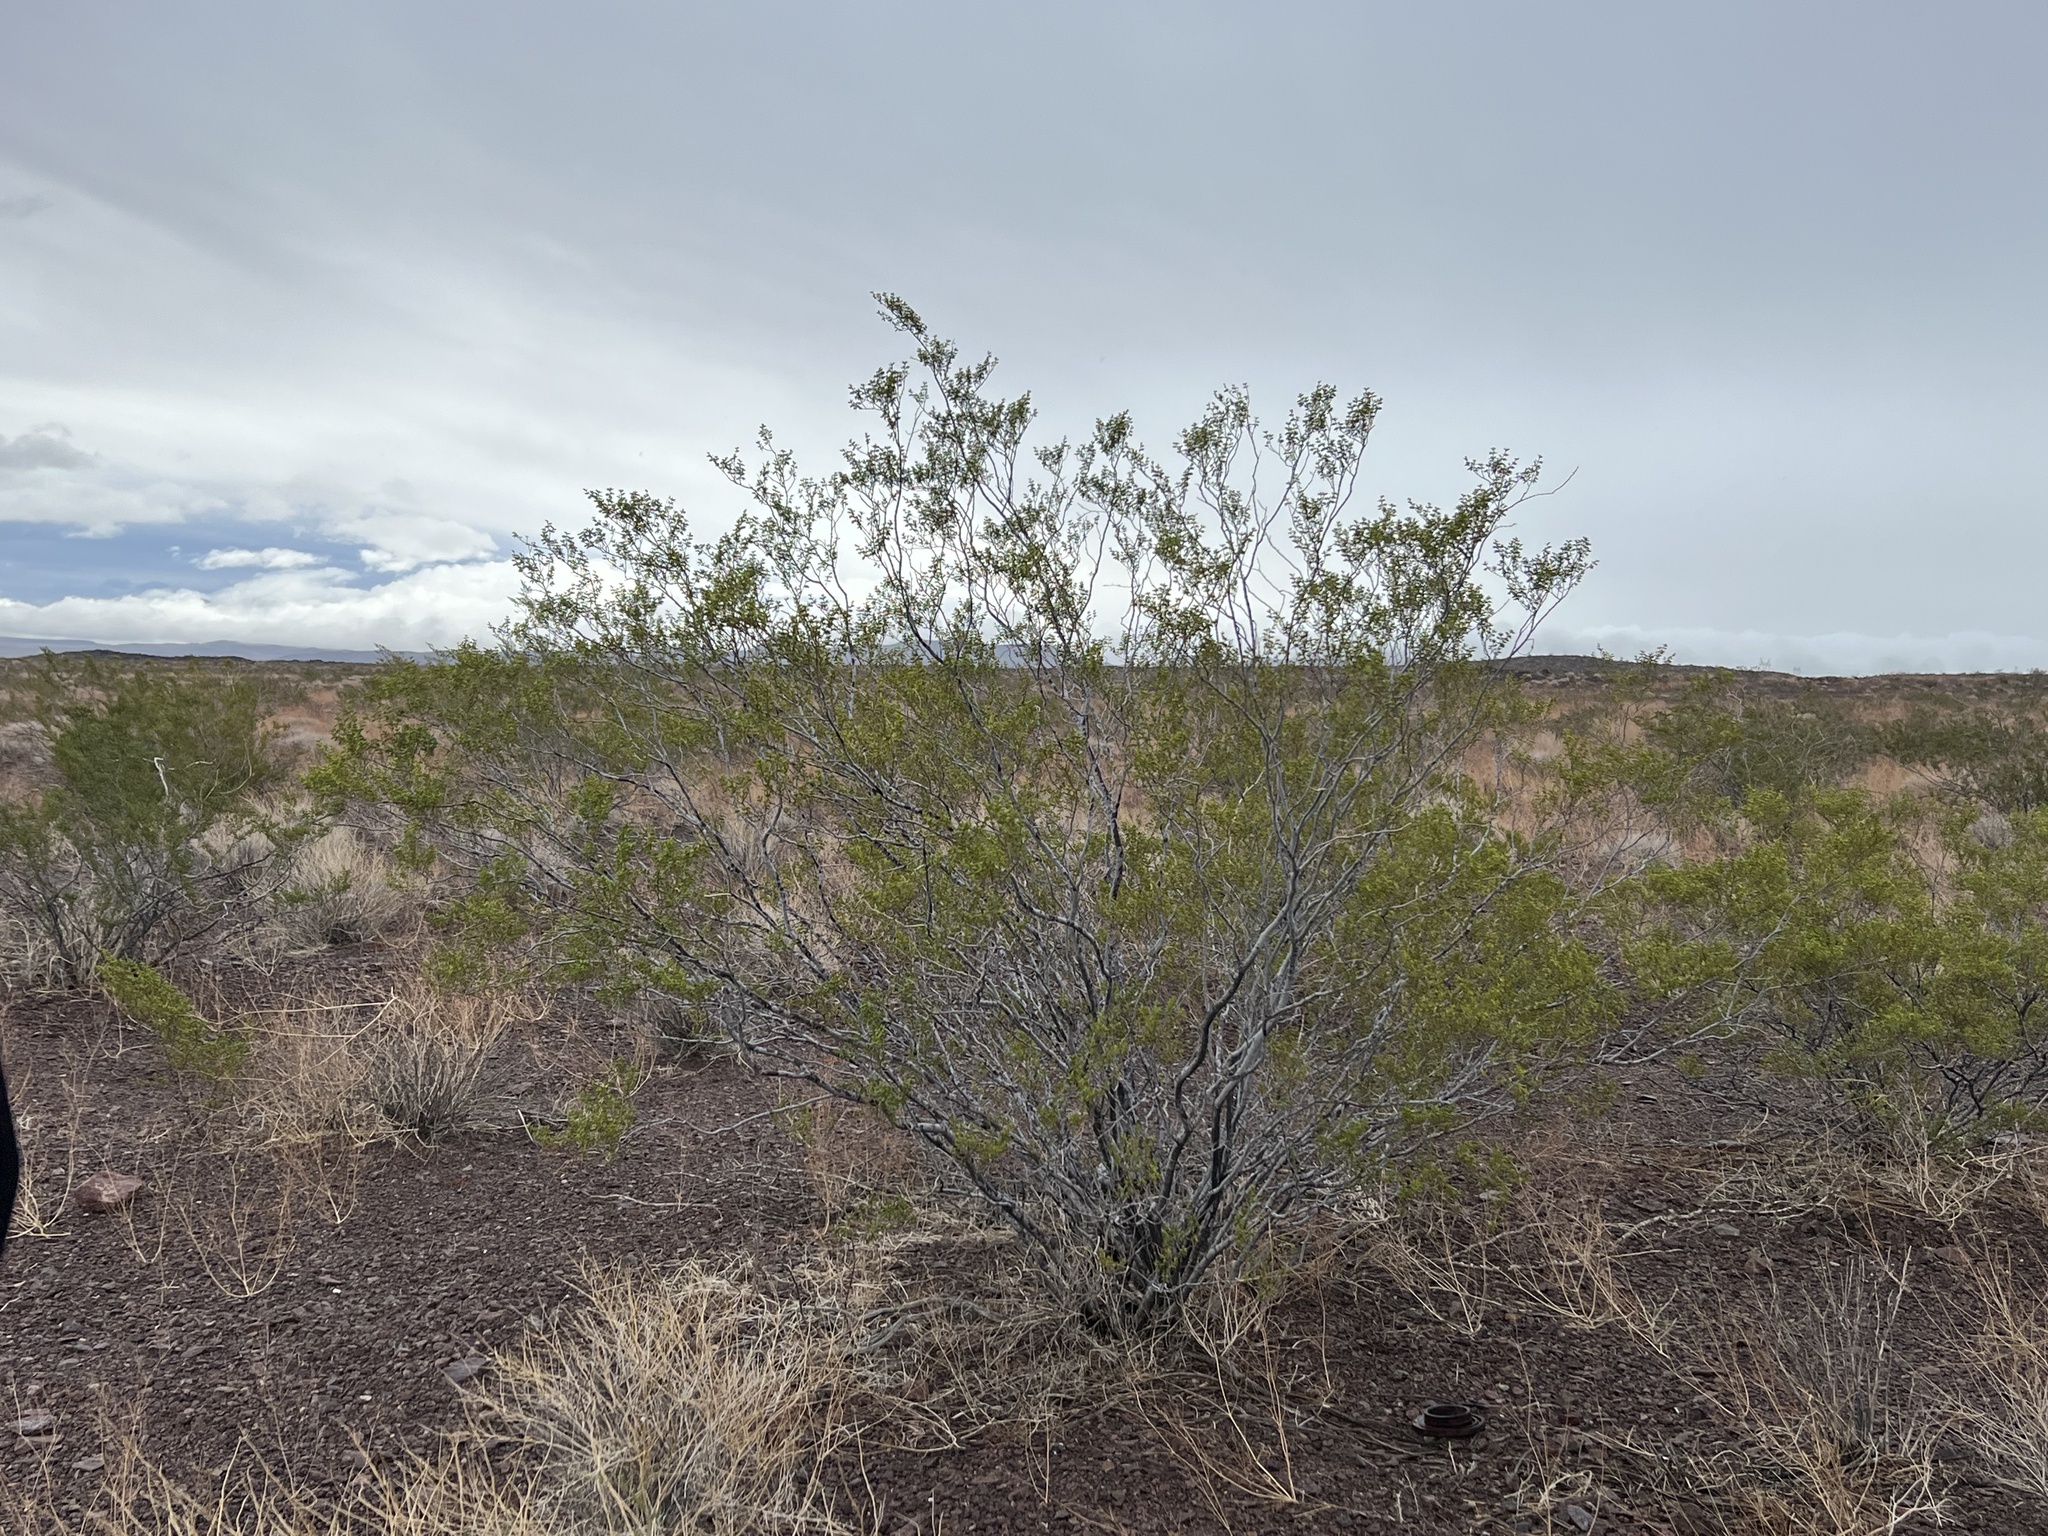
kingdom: Plantae
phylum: Tracheophyta
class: Magnoliopsida
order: Zygophyllales
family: Zygophyllaceae
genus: Larrea
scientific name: Larrea tridentata
